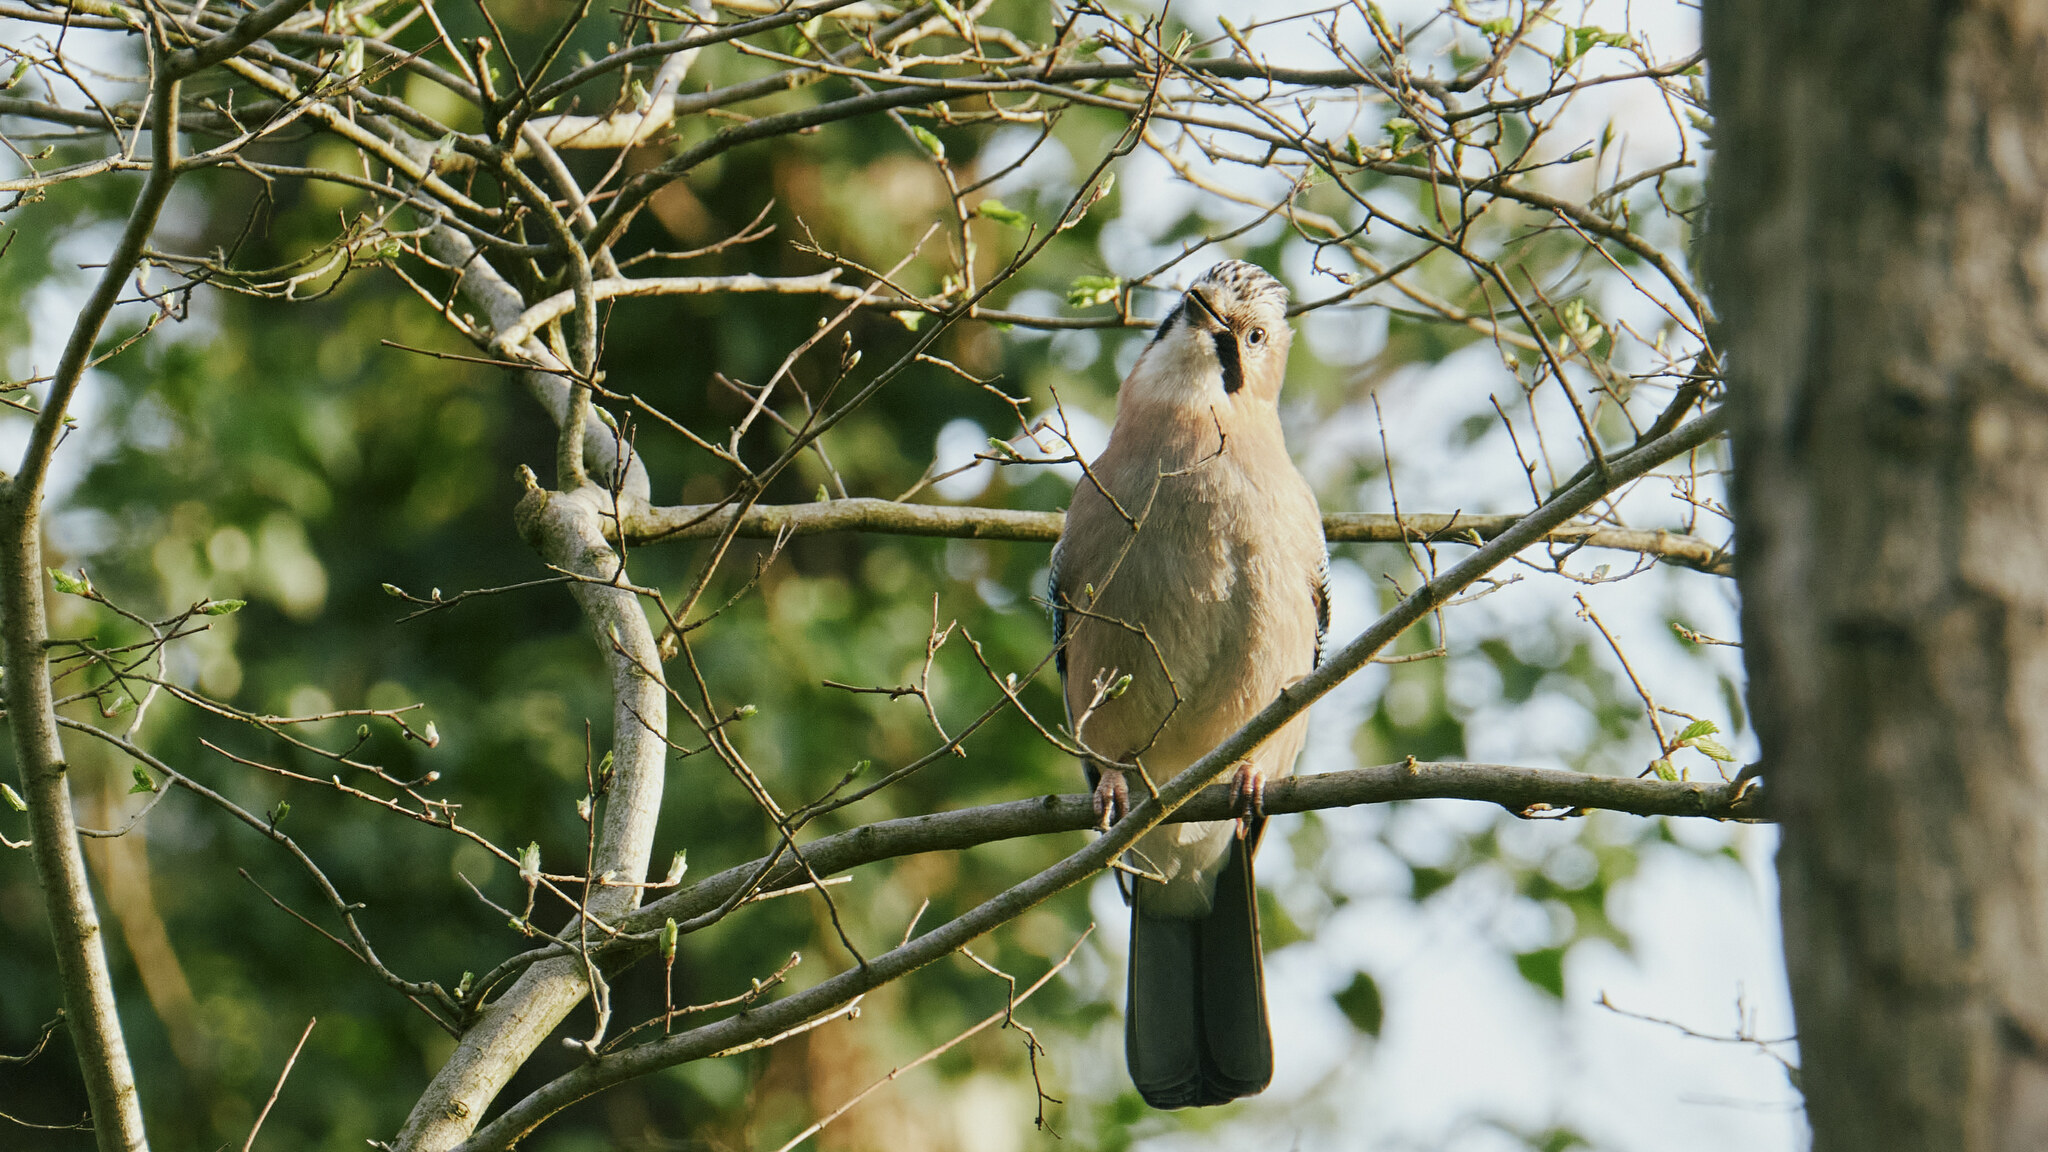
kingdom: Animalia
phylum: Chordata
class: Aves
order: Passeriformes
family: Corvidae
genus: Garrulus
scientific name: Garrulus glandarius
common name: Eurasian jay
